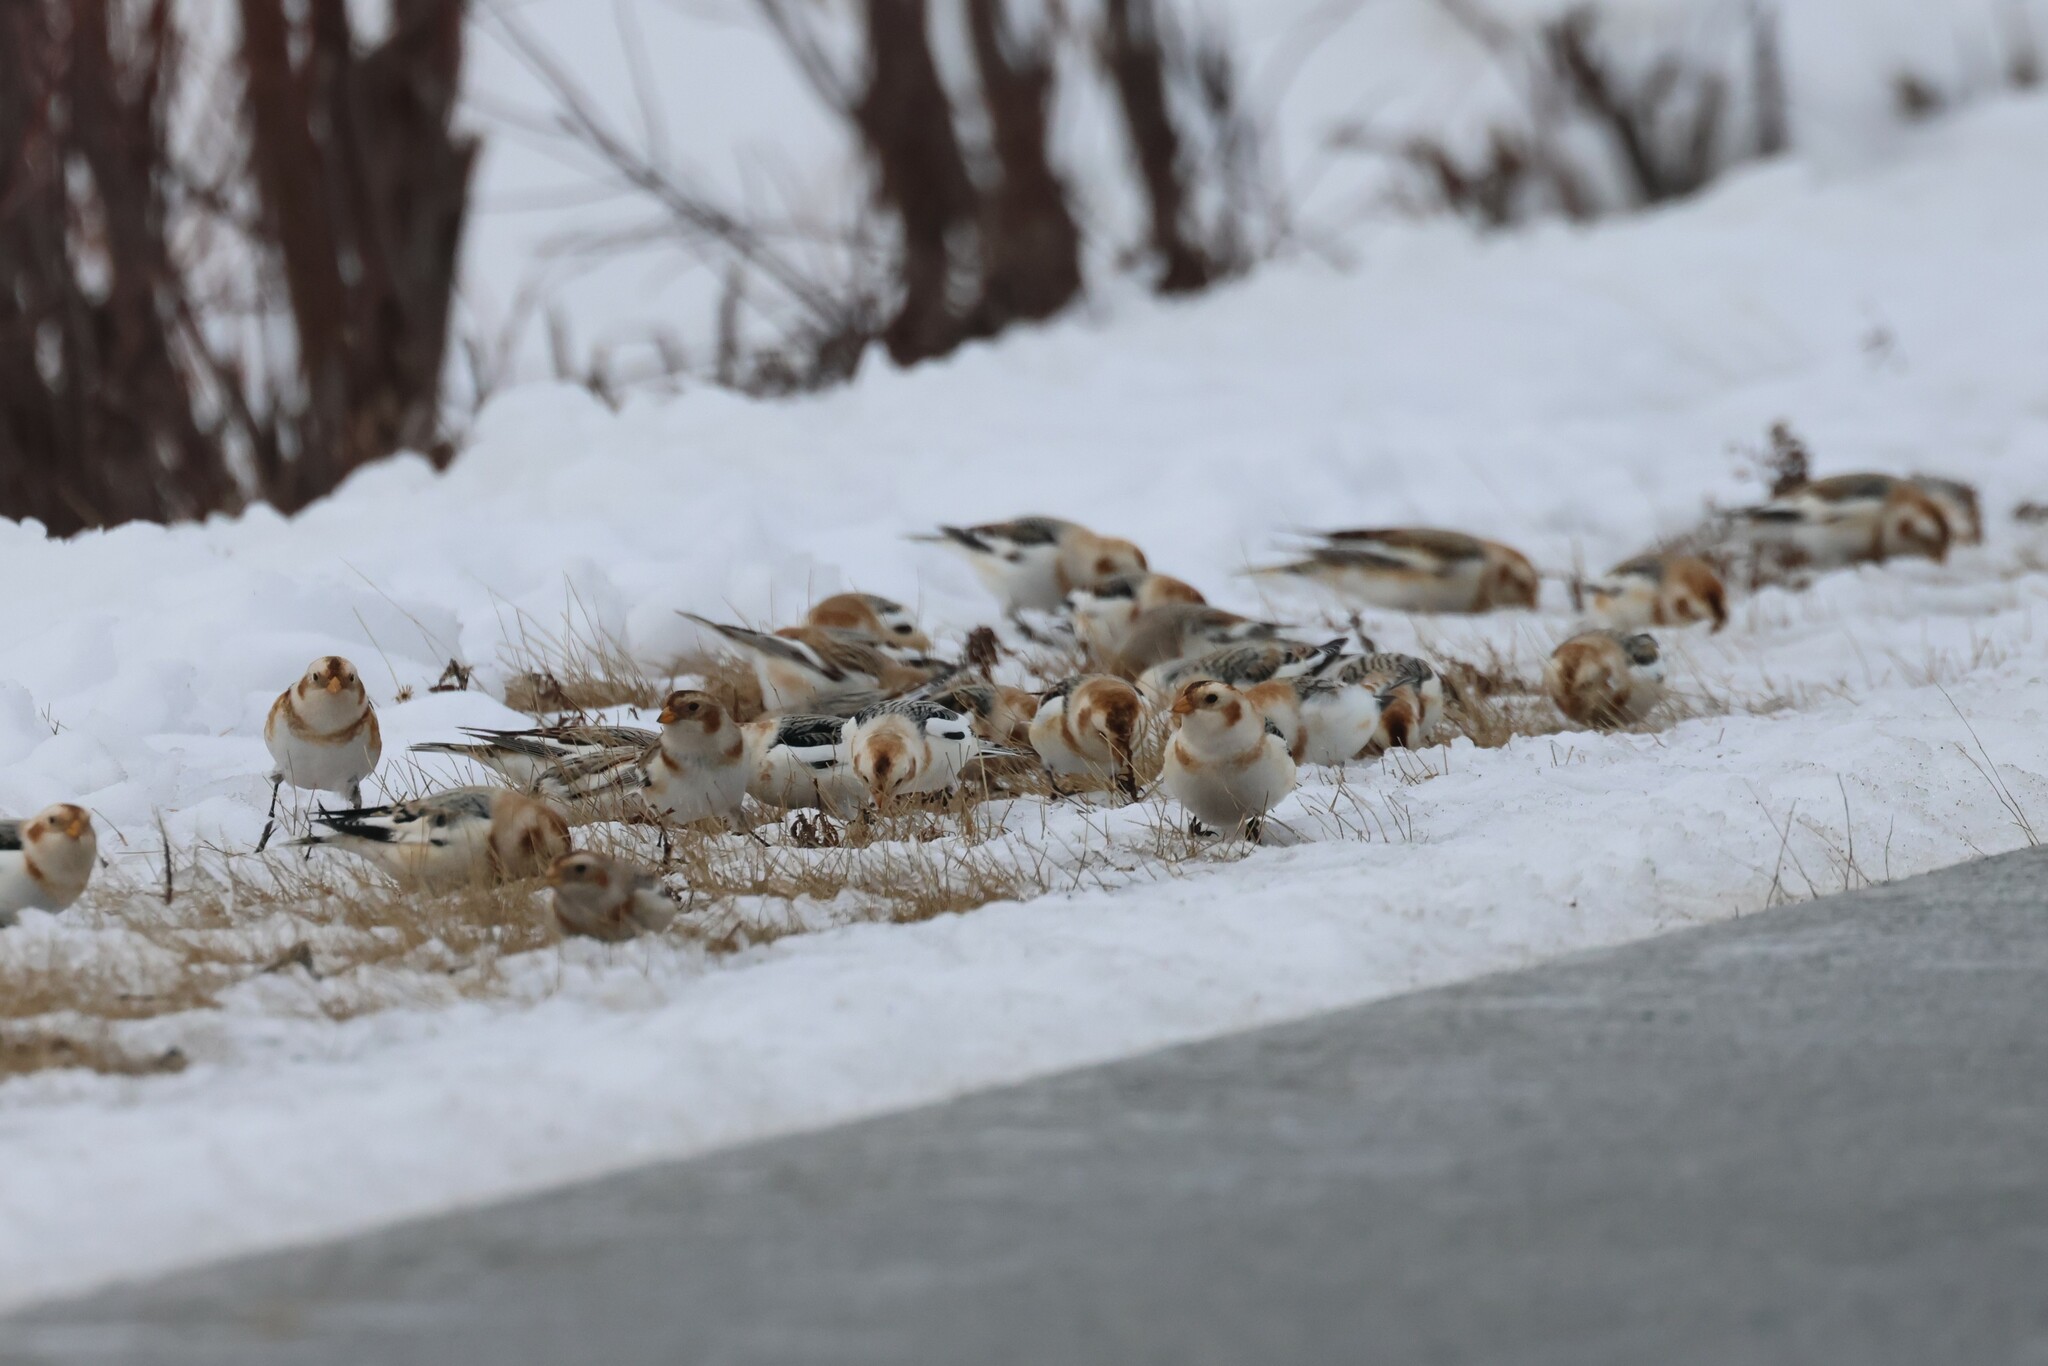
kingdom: Animalia
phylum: Chordata
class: Aves
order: Passeriformes
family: Calcariidae
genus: Plectrophenax
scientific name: Plectrophenax nivalis
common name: Snow bunting
